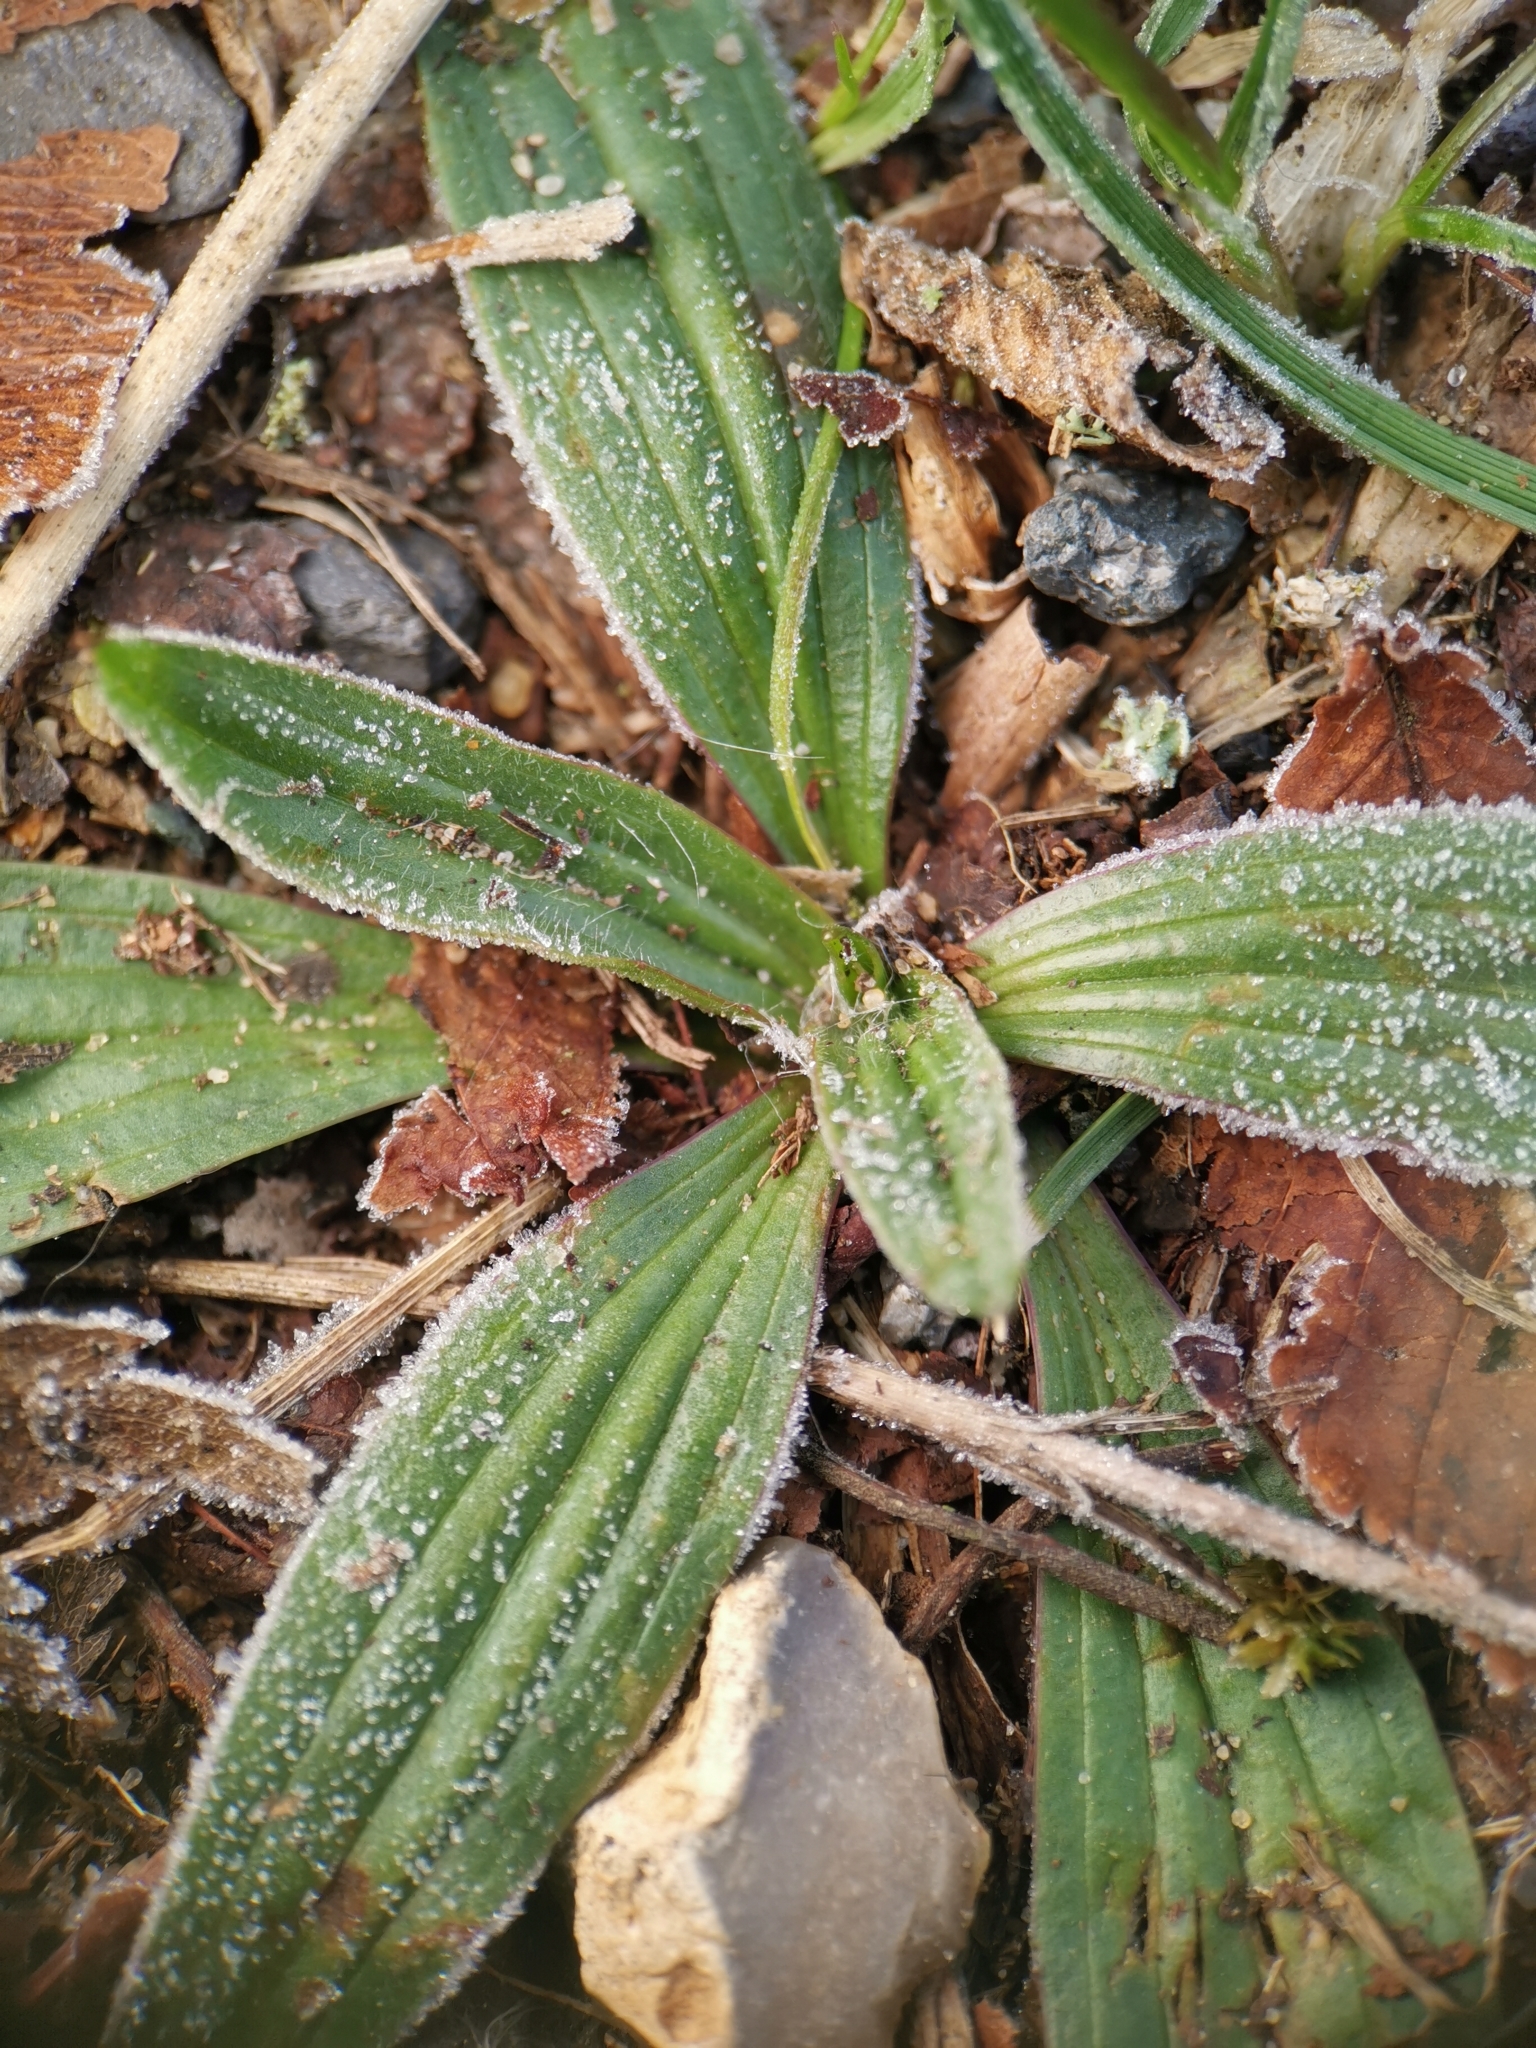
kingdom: Plantae
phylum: Tracheophyta
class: Magnoliopsida
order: Lamiales
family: Plantaginaceae
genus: Plantago
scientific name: Plantago lanceolata
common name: Ribwort plantain
